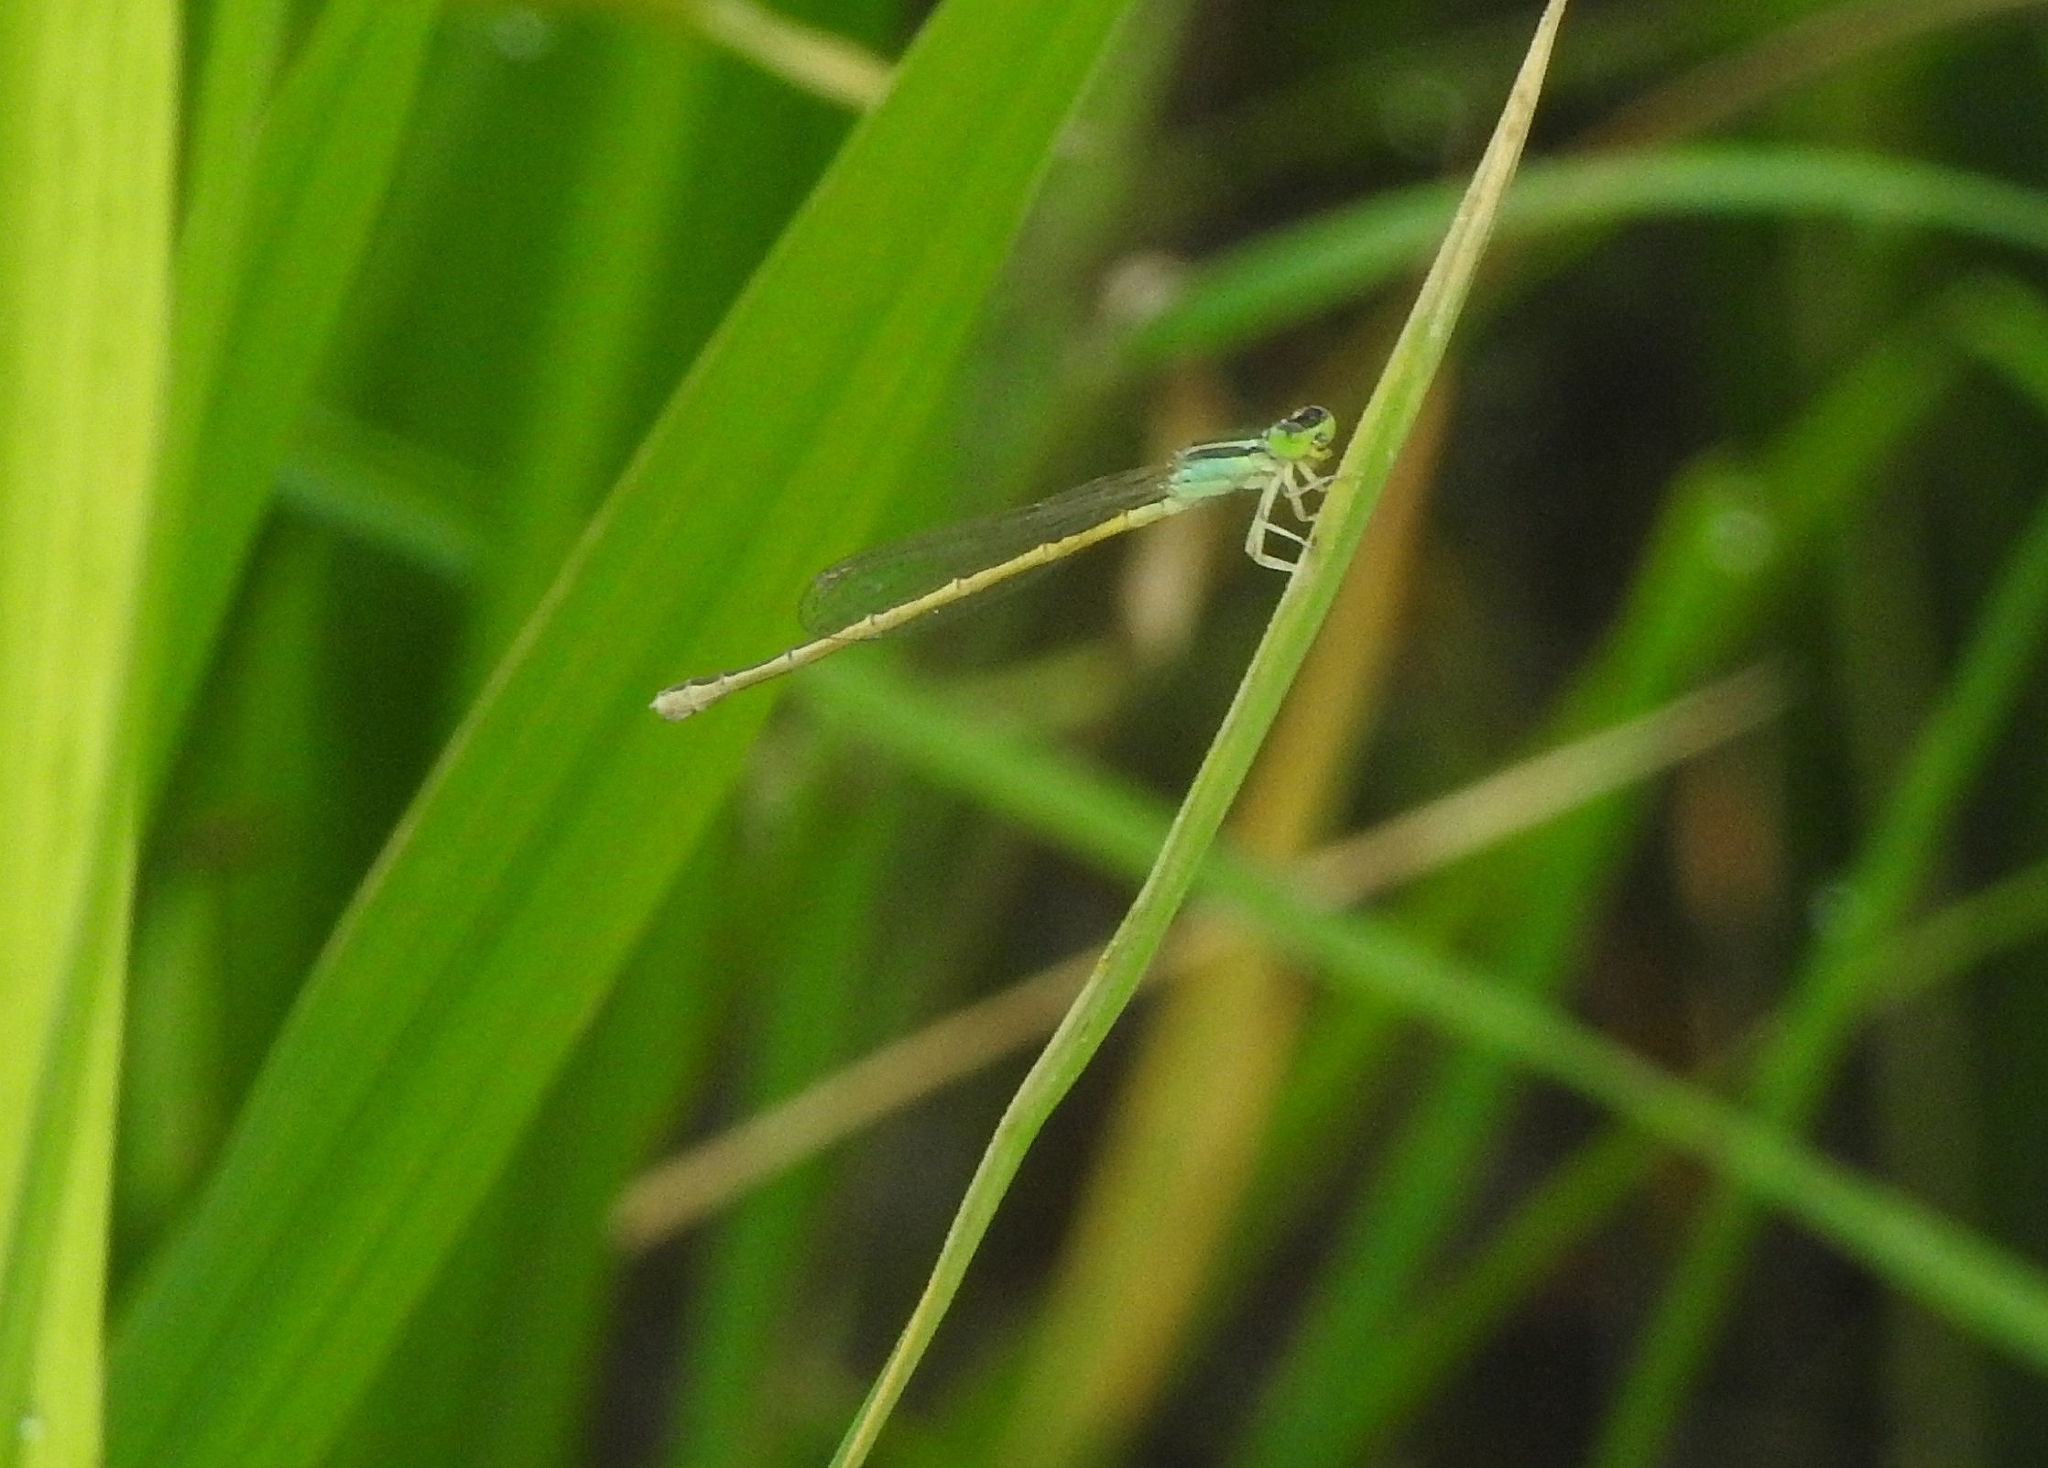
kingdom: Animalia
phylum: Arthropoda
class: Insecta
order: Odonata
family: Coenagrionidae
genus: Ischnura
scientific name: Ischnura rubilio
